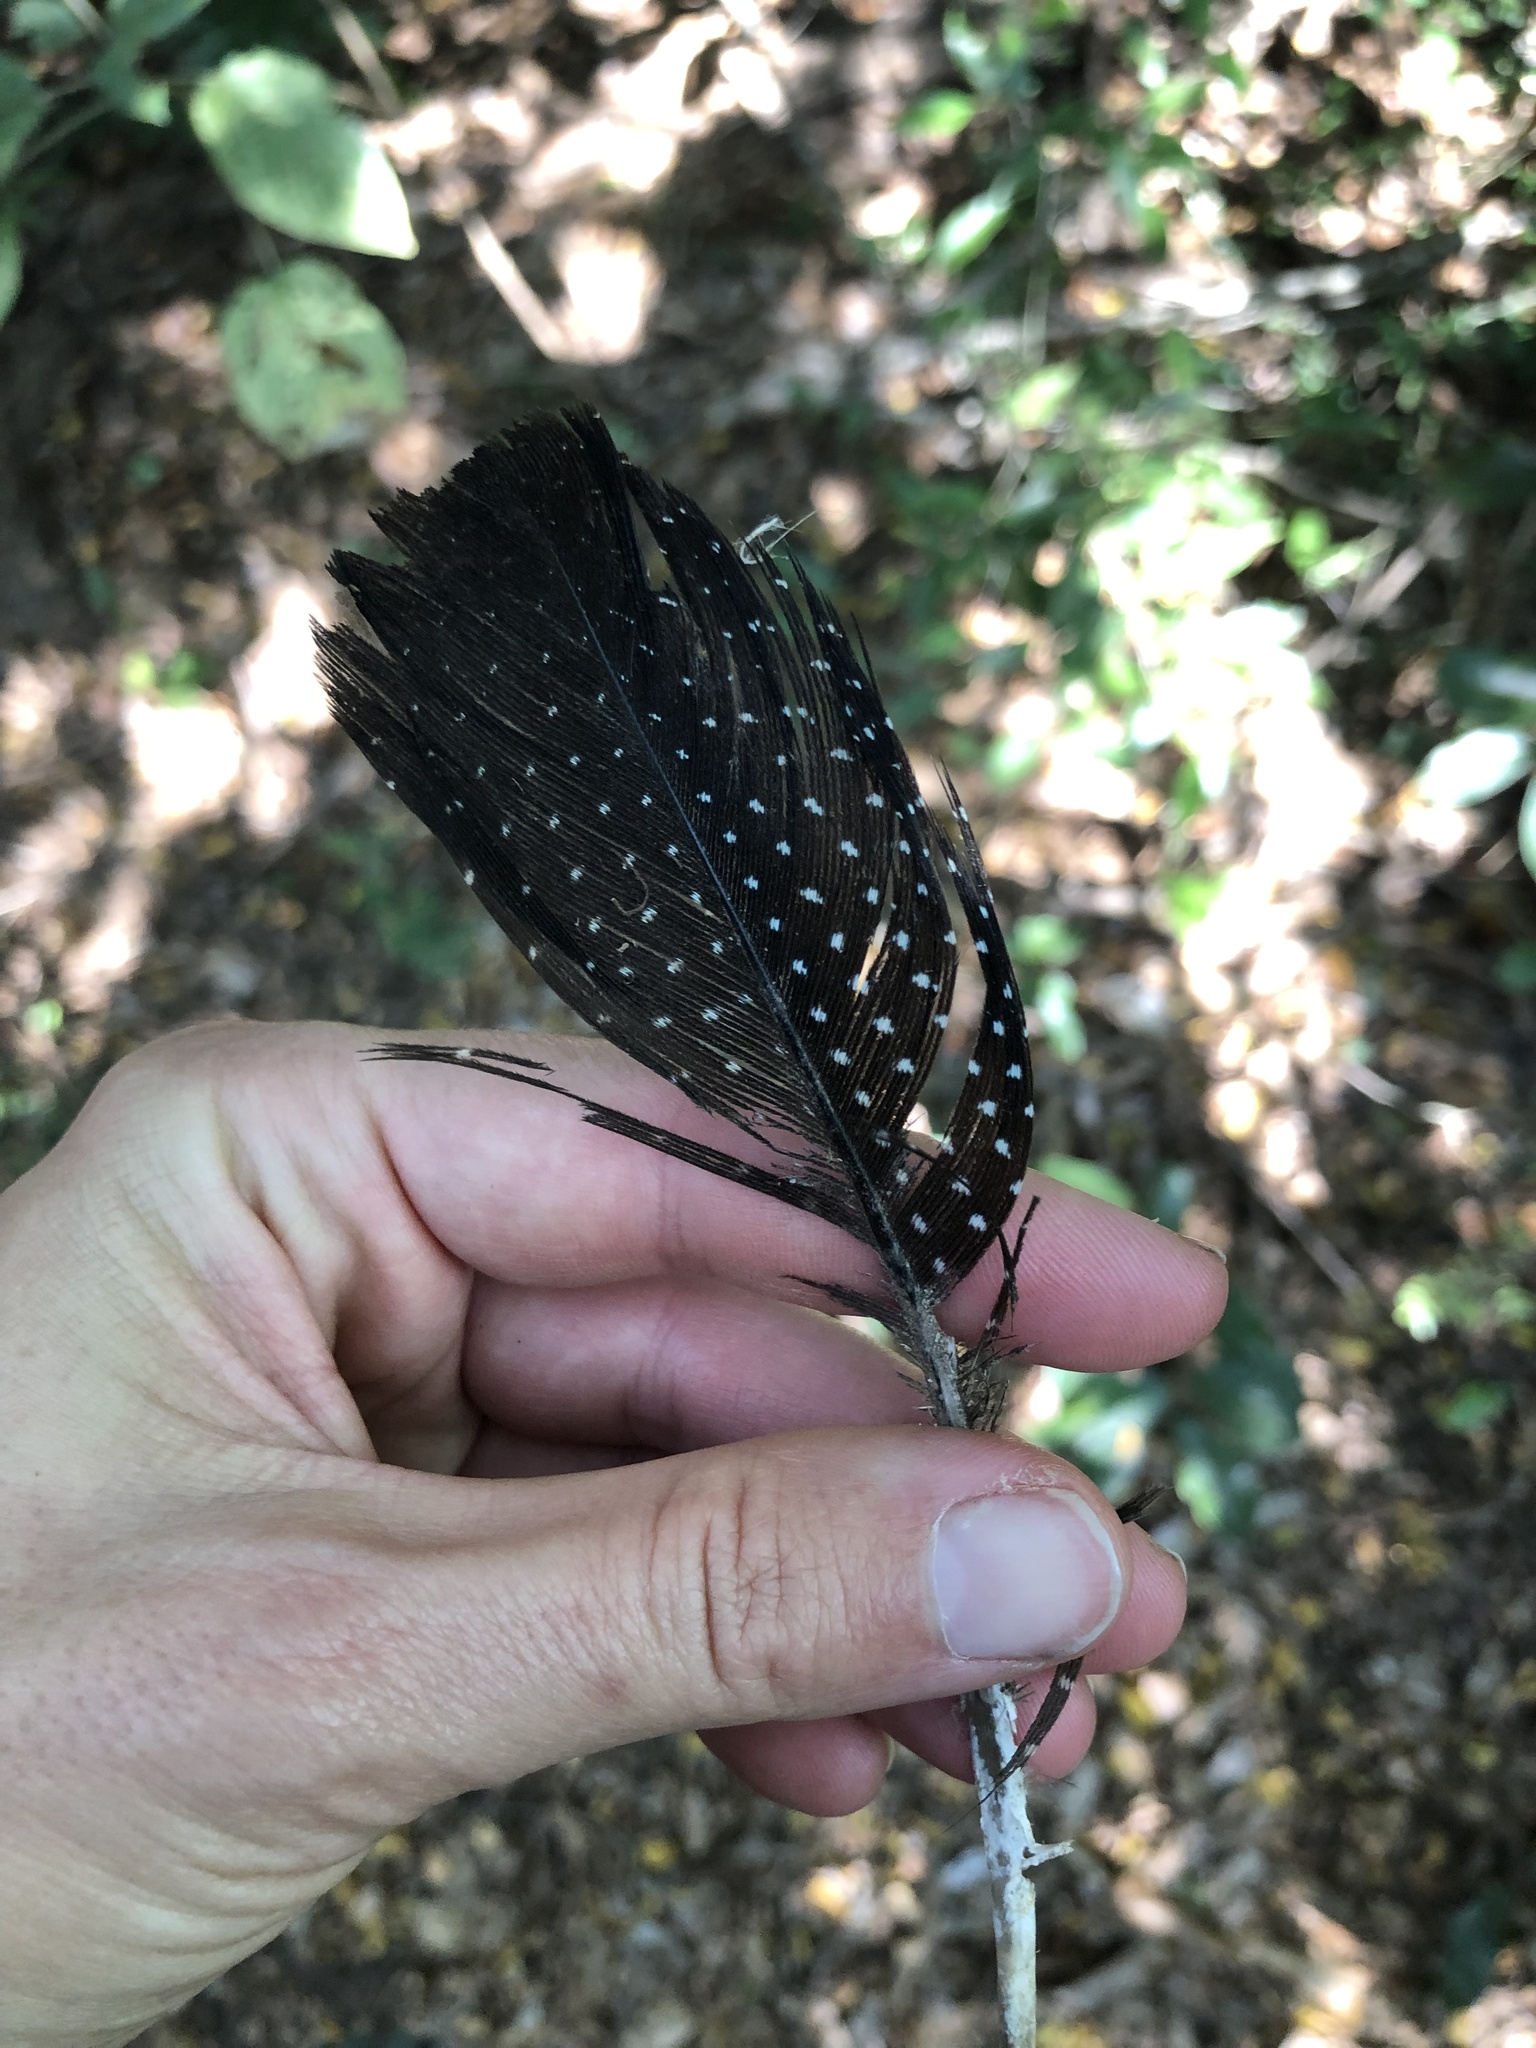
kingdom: Animalia
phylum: Chordata
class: Aves
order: Galliformes
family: Numididae
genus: Guttera
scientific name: Guttera pucherani
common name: Crested guineafowl
